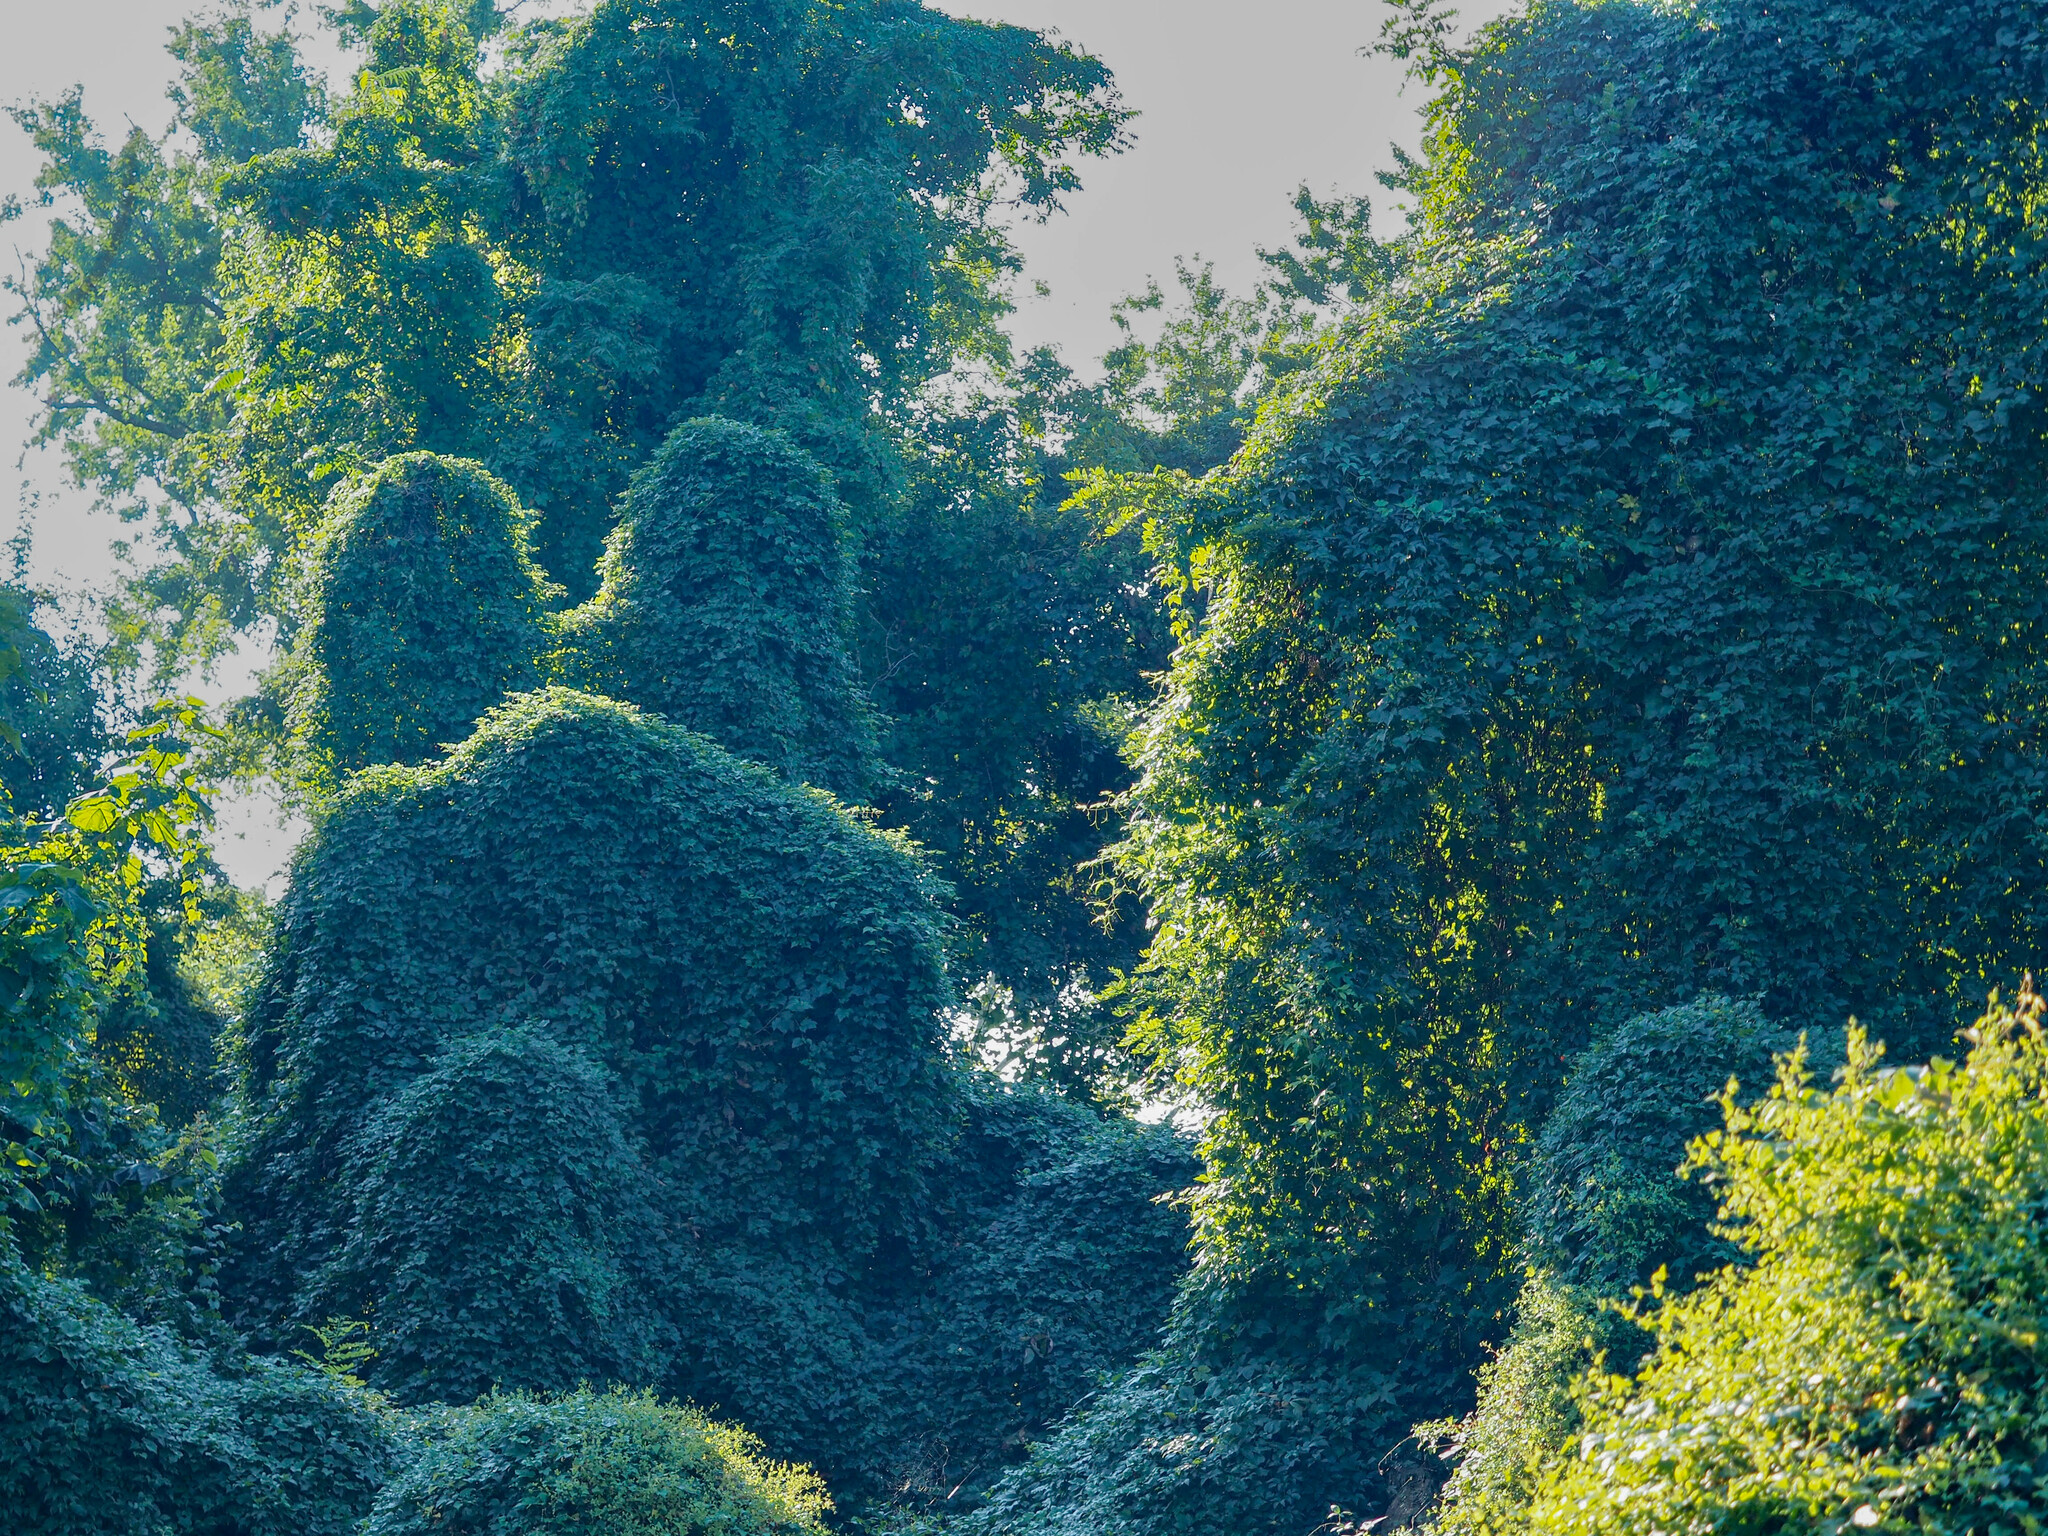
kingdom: Plantae
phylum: Tracheophyta
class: Magnoliopsida
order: Vitales
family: Vitaceae
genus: Ampelopsis
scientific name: Ampelopsis glandulosa
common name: Amur peppervine
